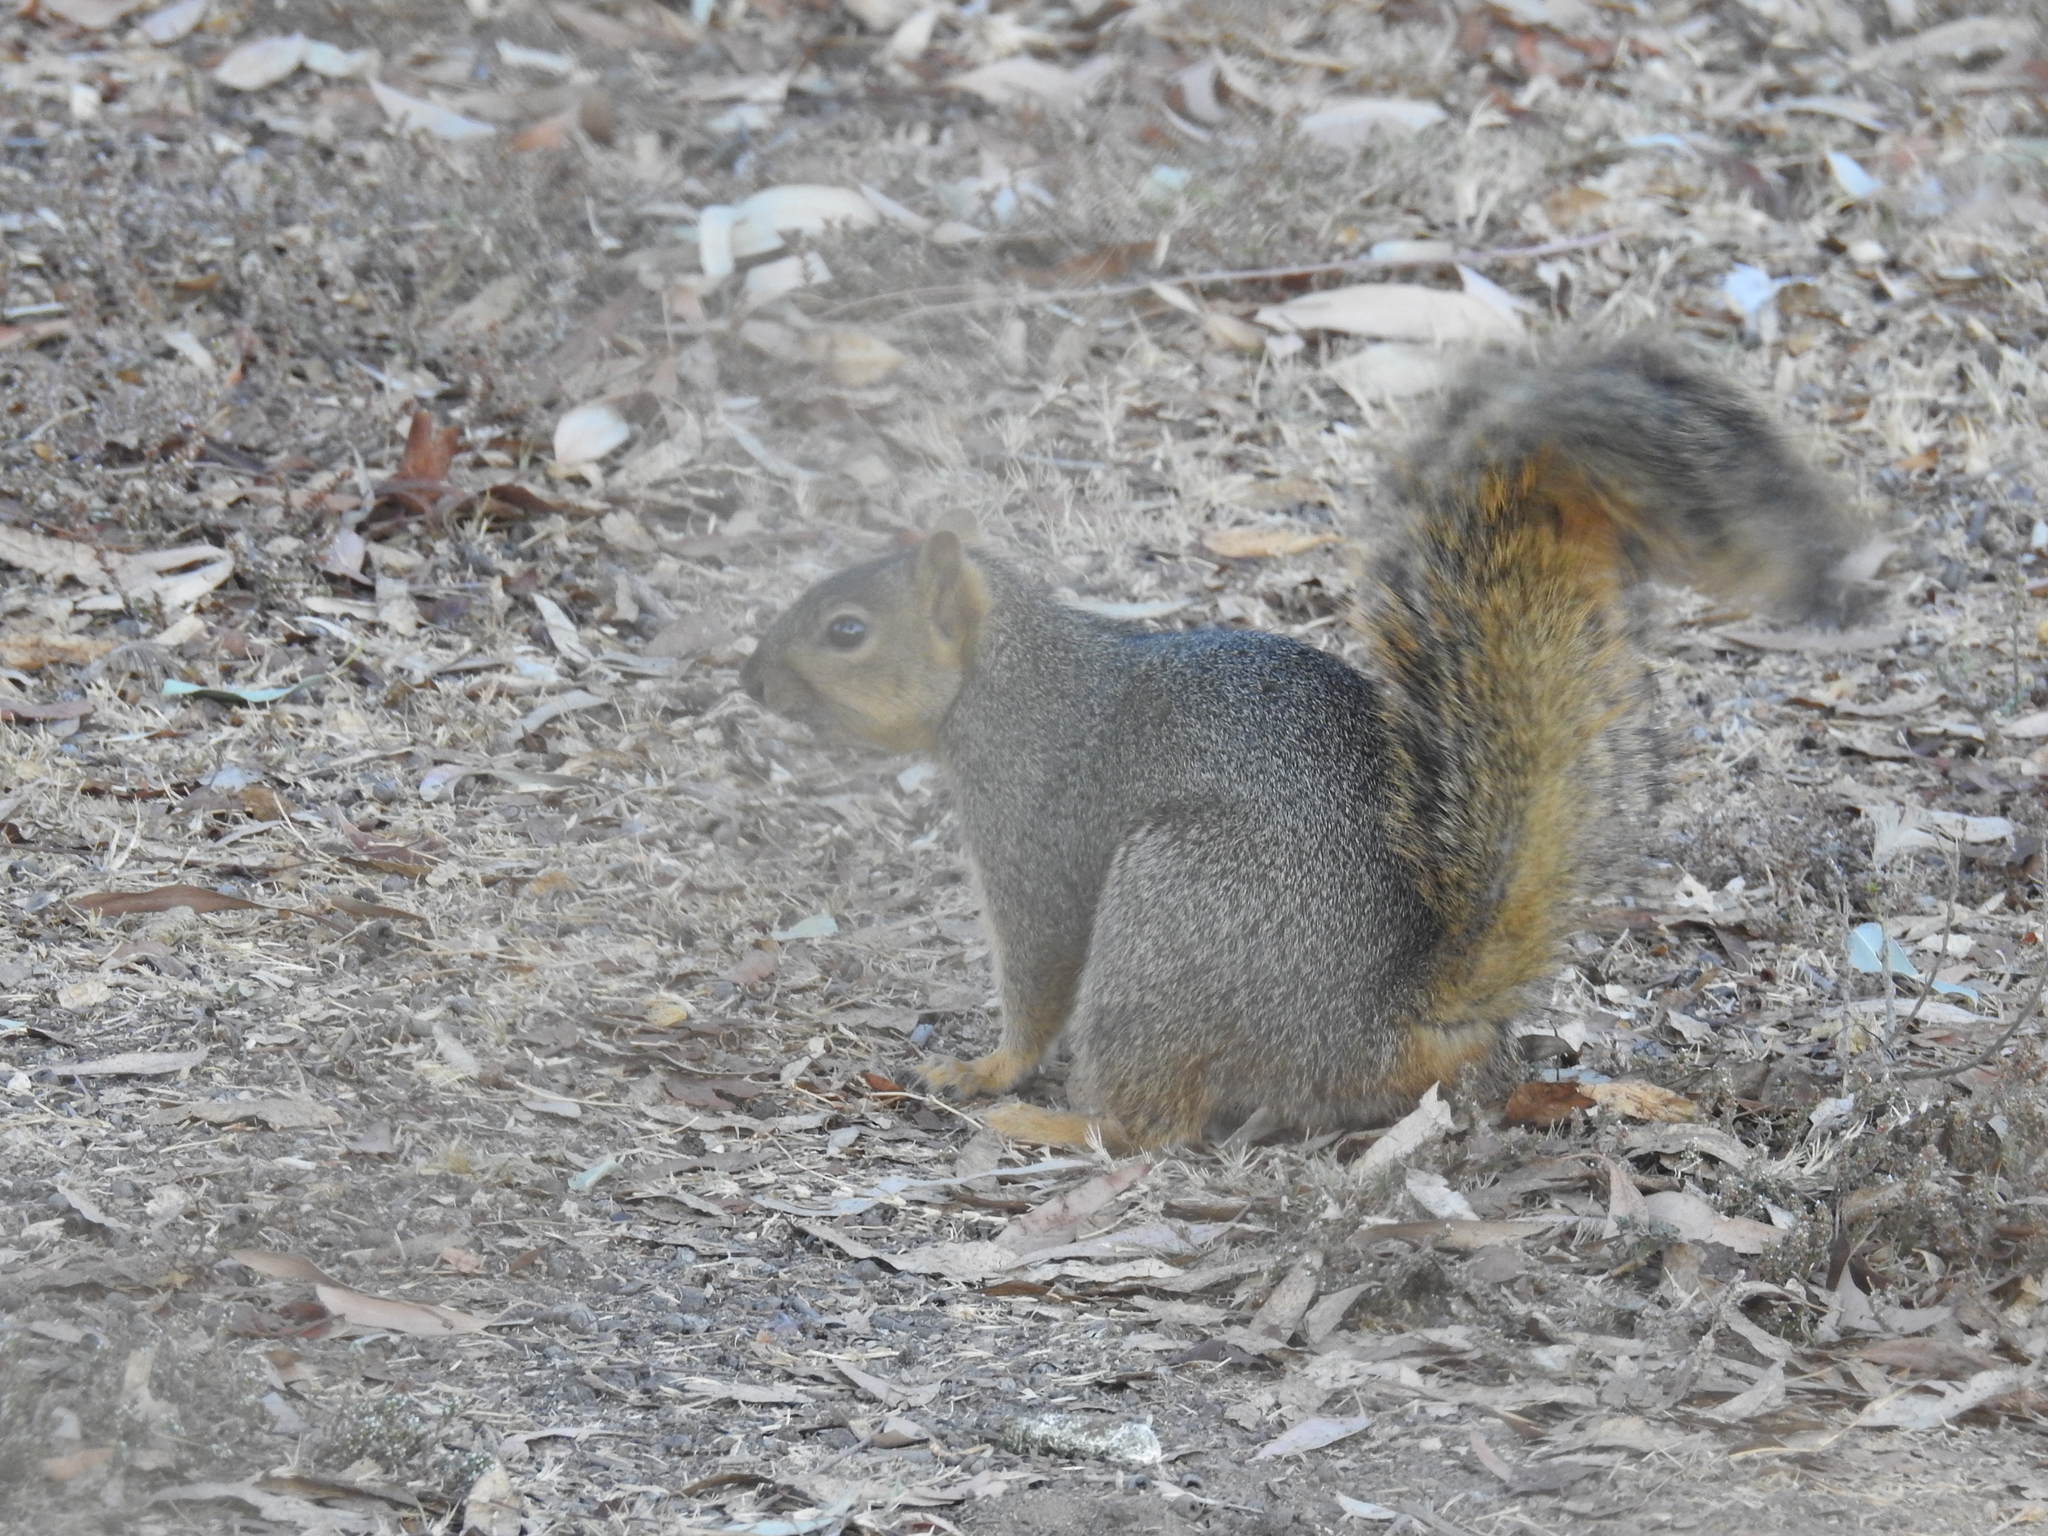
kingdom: Animalia
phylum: Chordata
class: Mammalia
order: Rodentia
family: Sciuridae
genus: Sciurus
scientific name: Sciurus niger
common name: Fox squirrel
